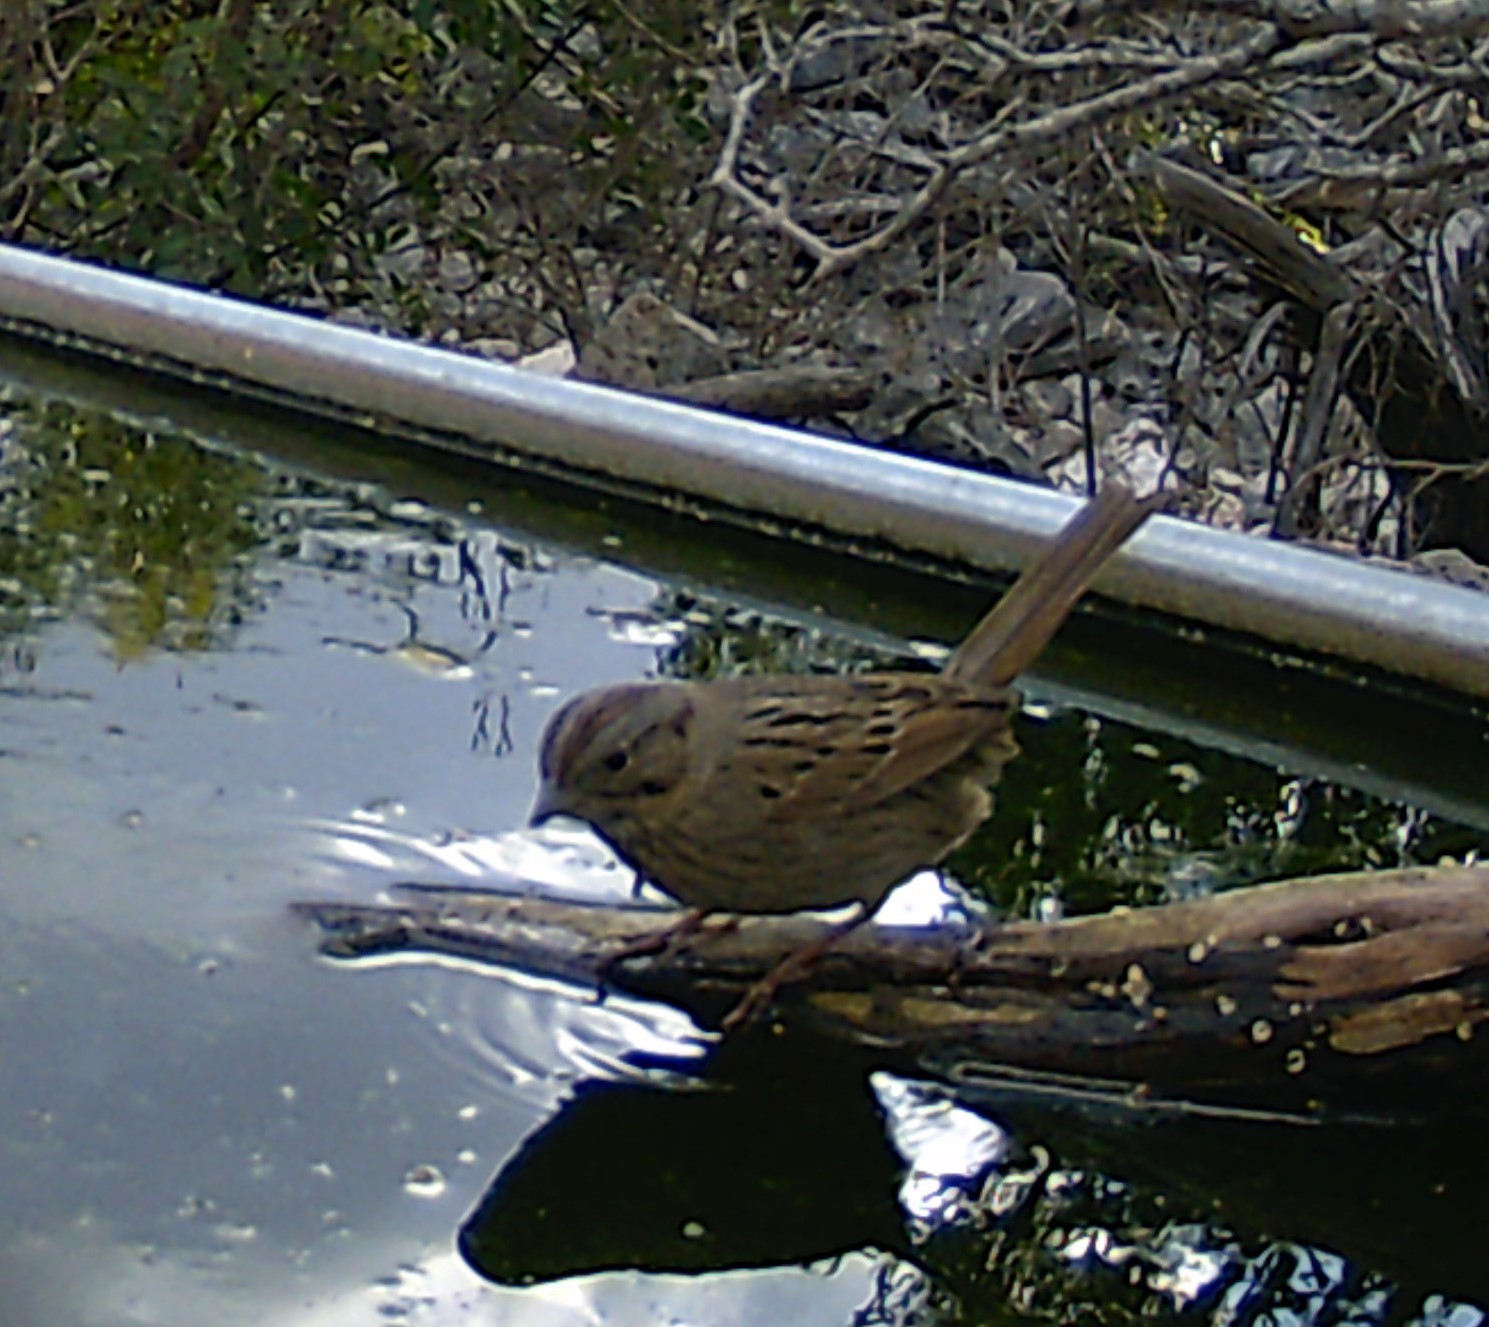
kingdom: Animalia
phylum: Chordata
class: Aves
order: Passeriformes
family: Passerellidae
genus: Melospiza
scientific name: Melospiza lincolnii
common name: Lincoln's sparrow
